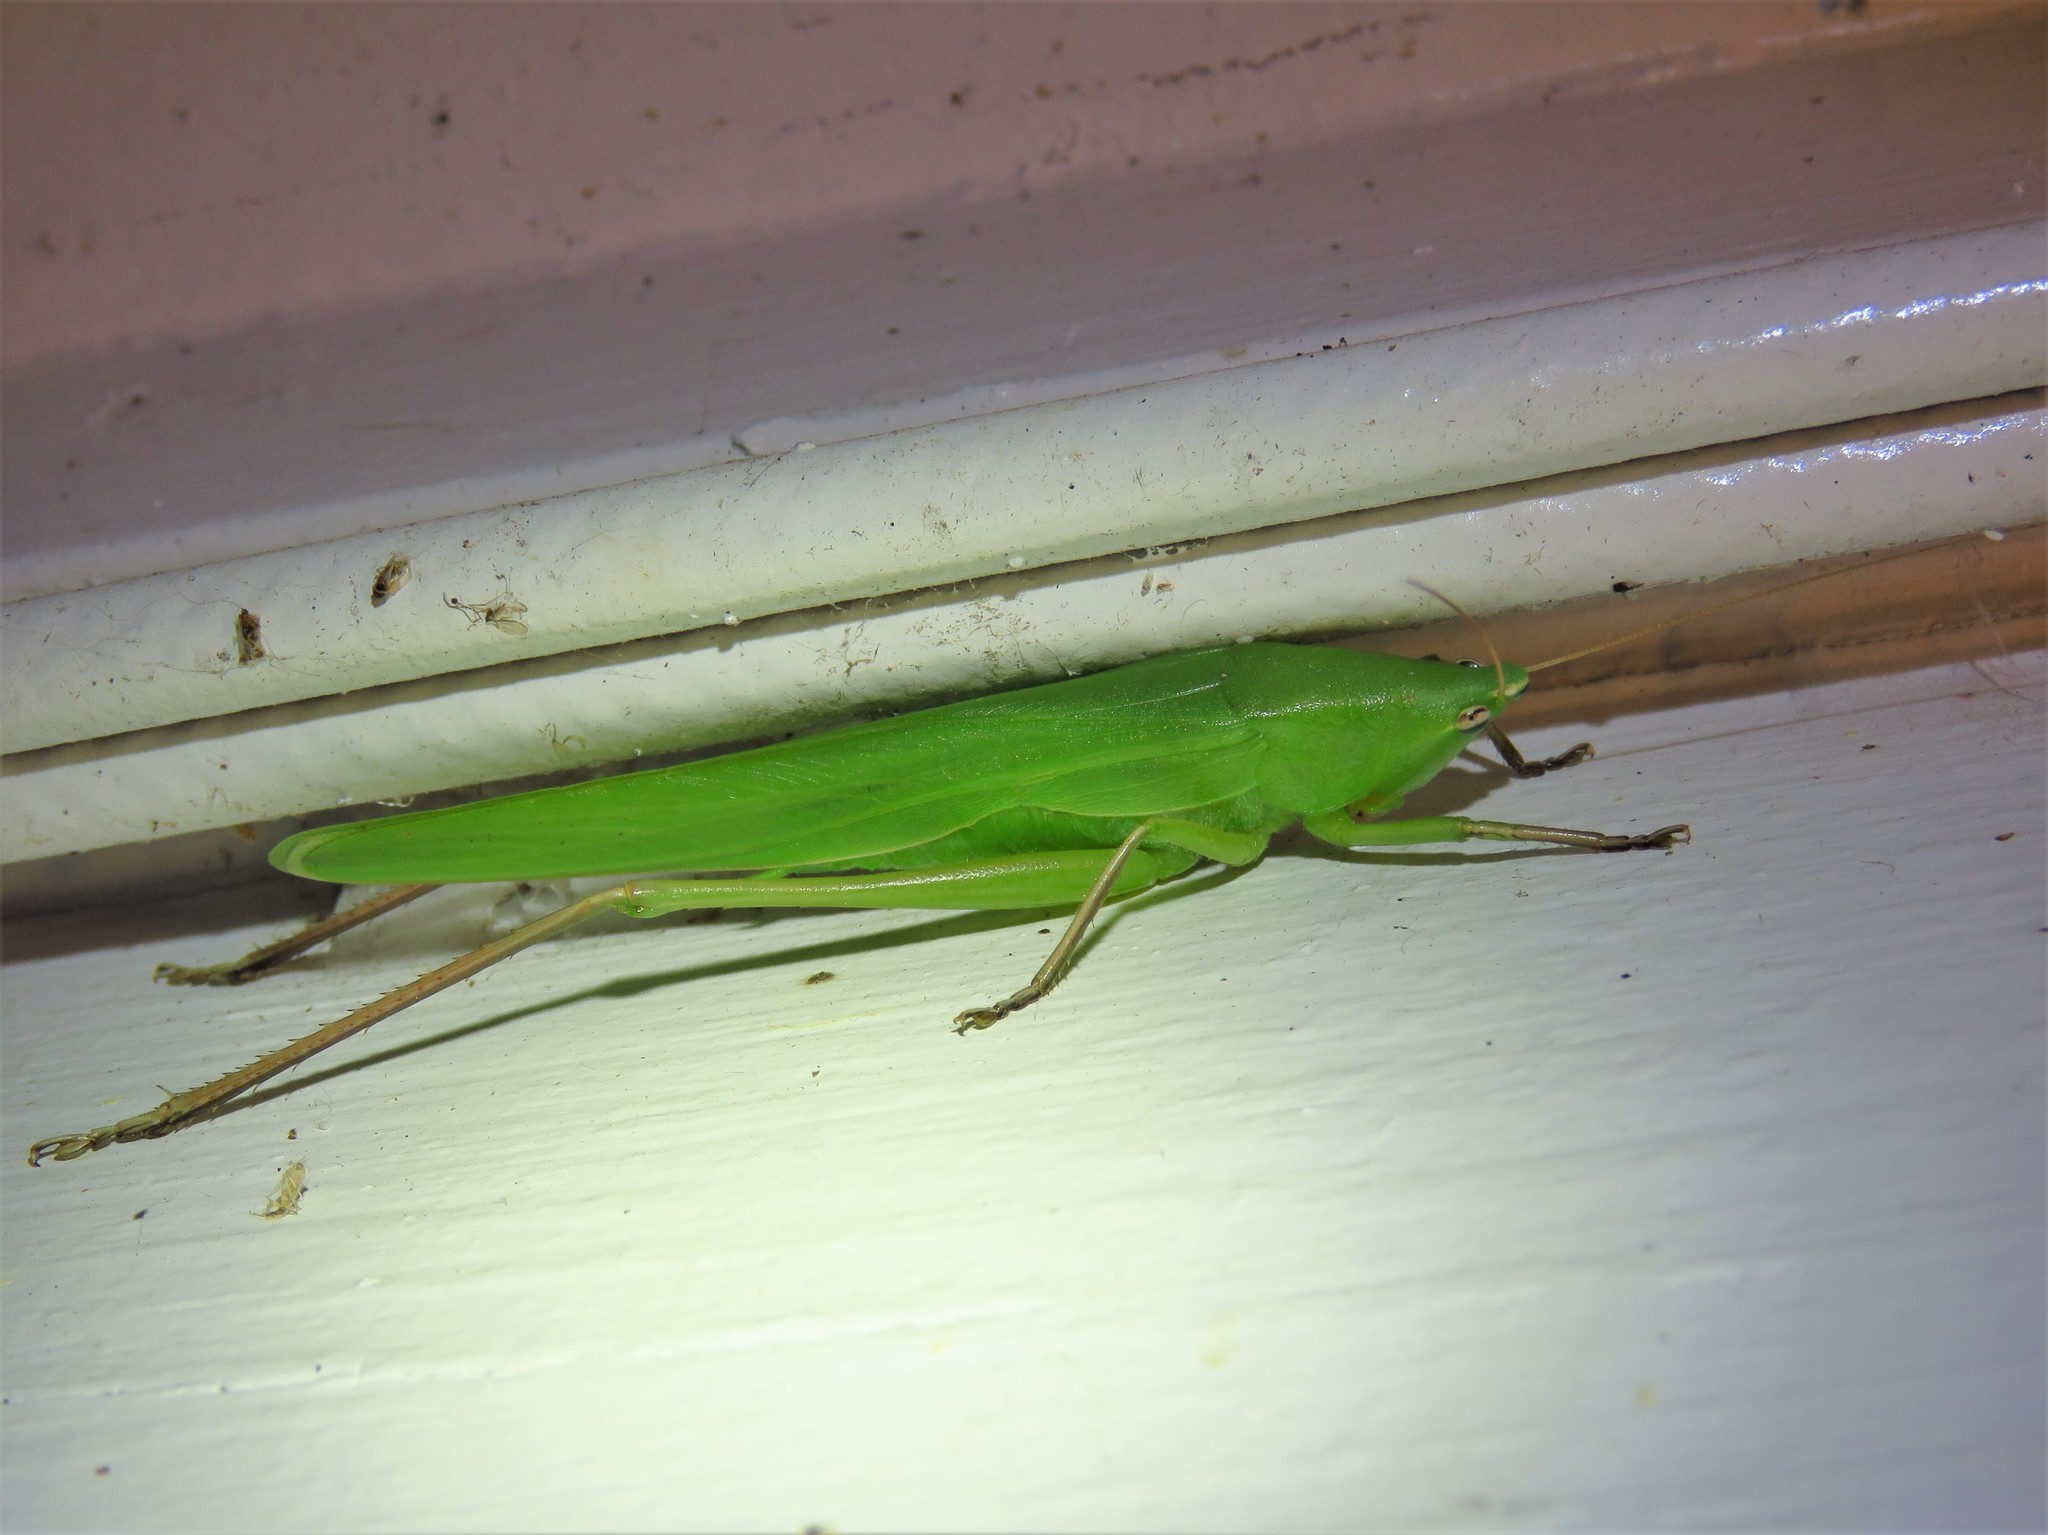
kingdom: Animalia
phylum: Arthropoda
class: Insecta
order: Orthoptera
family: Tettigoniidae
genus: Neoconocephalus
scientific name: Neoconocephalus triops
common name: Broad-tipped conehead
